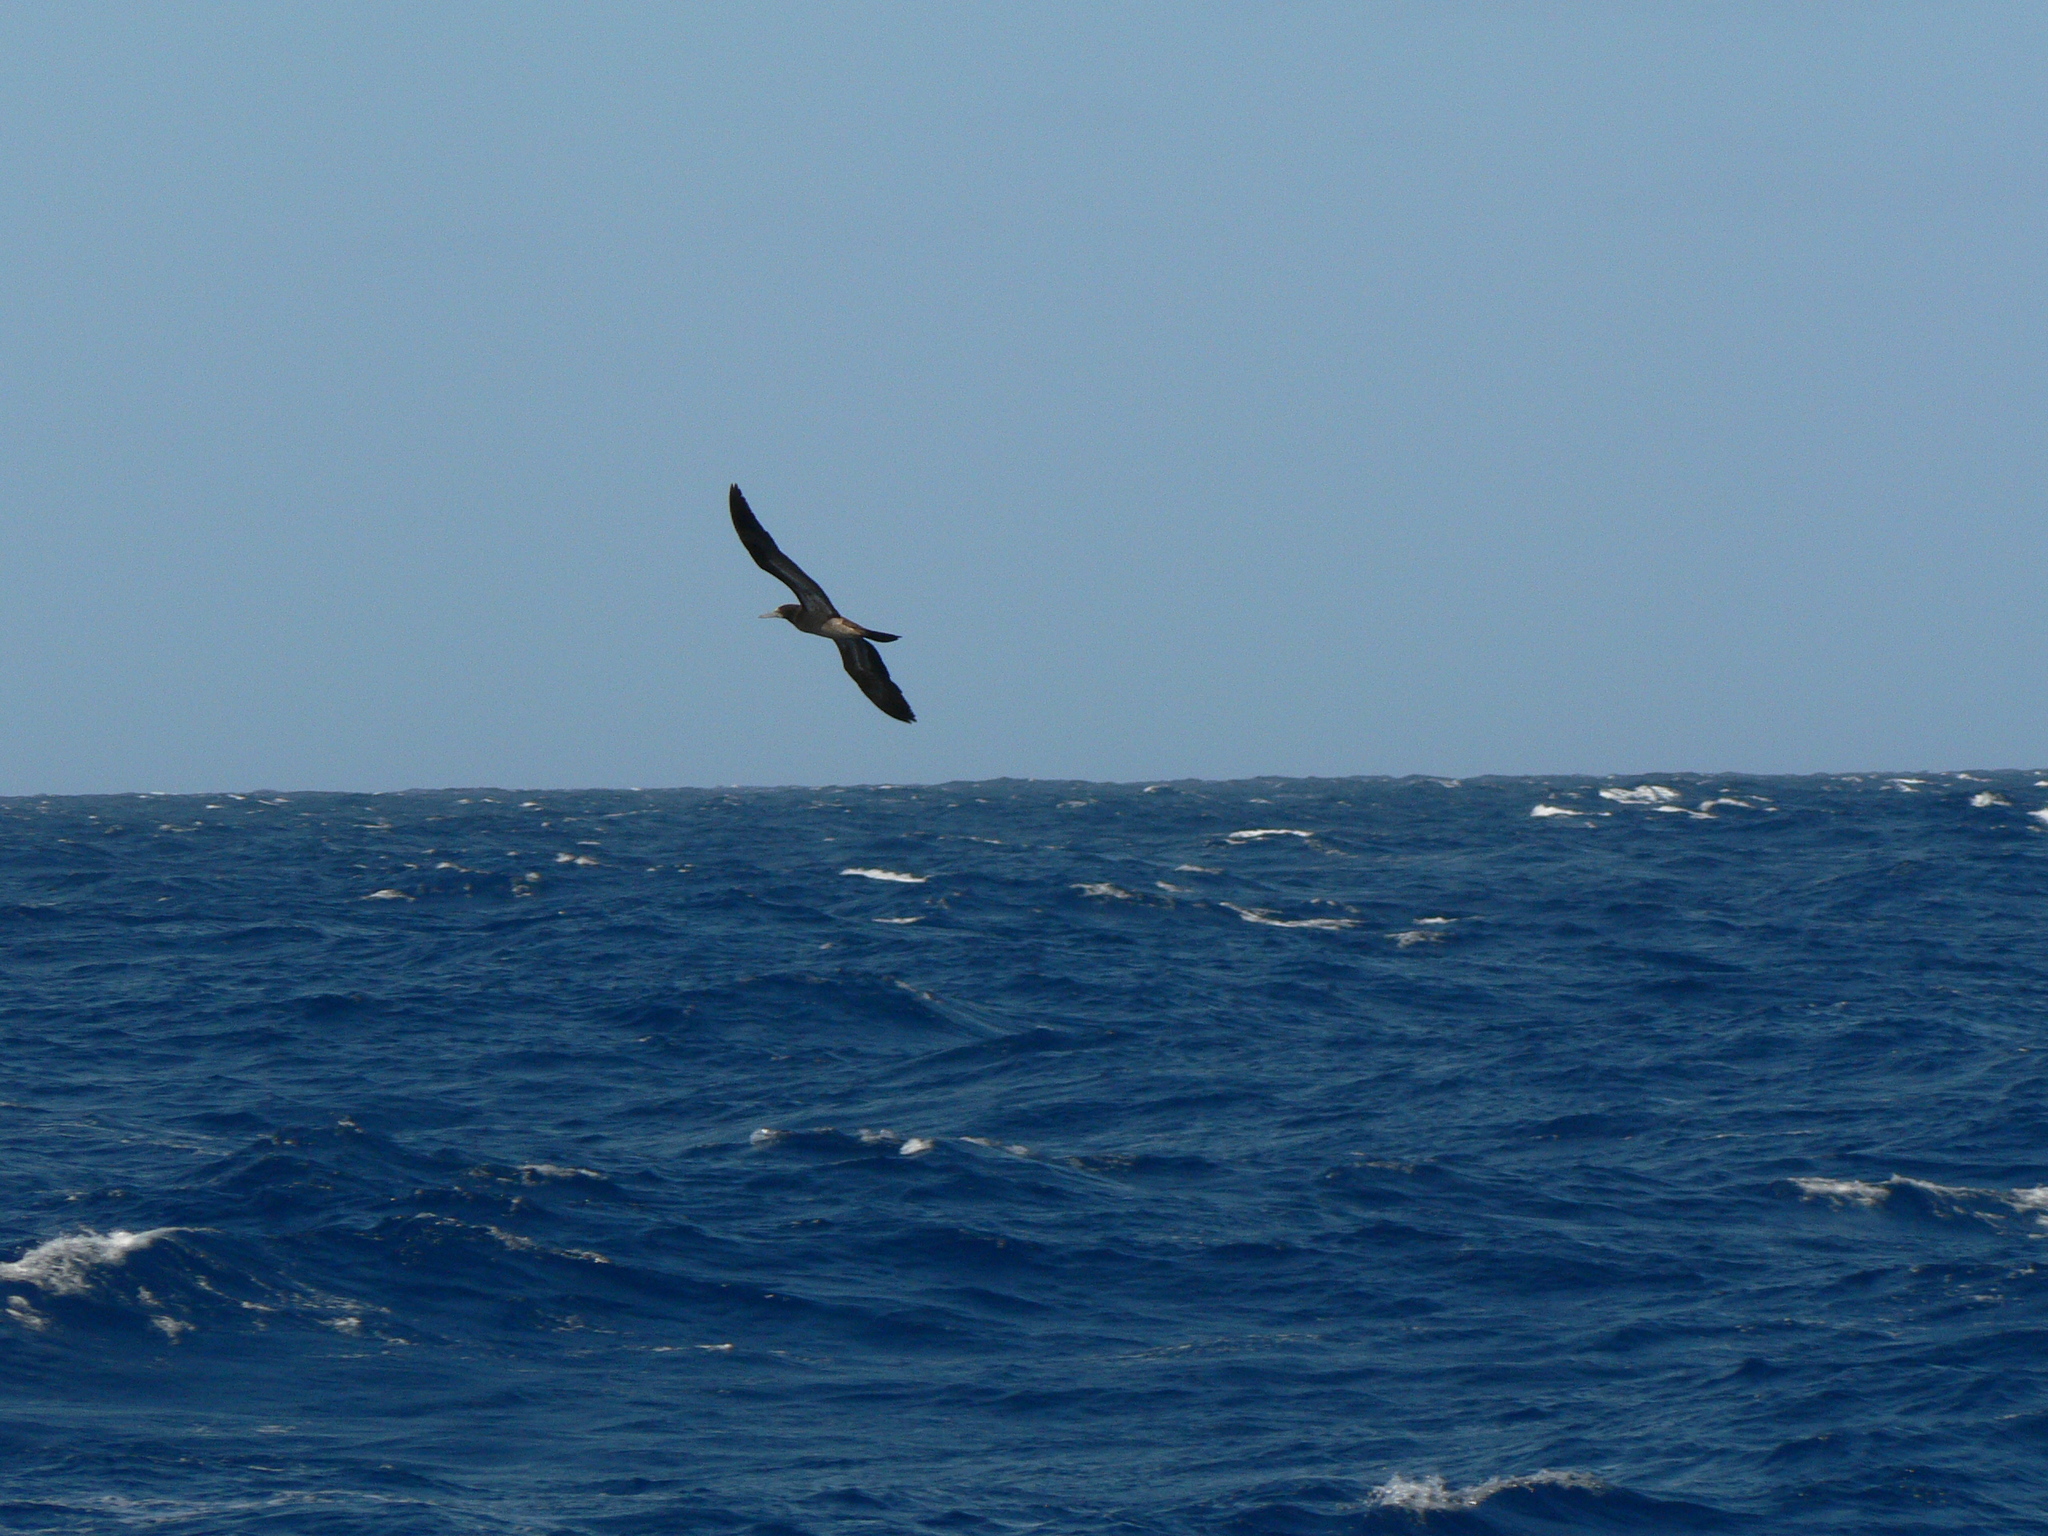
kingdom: Animalia
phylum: Chordata
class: Aves
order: Suliformes
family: Sulidae
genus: Sula
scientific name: Sula leucogaster
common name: Brown booby
